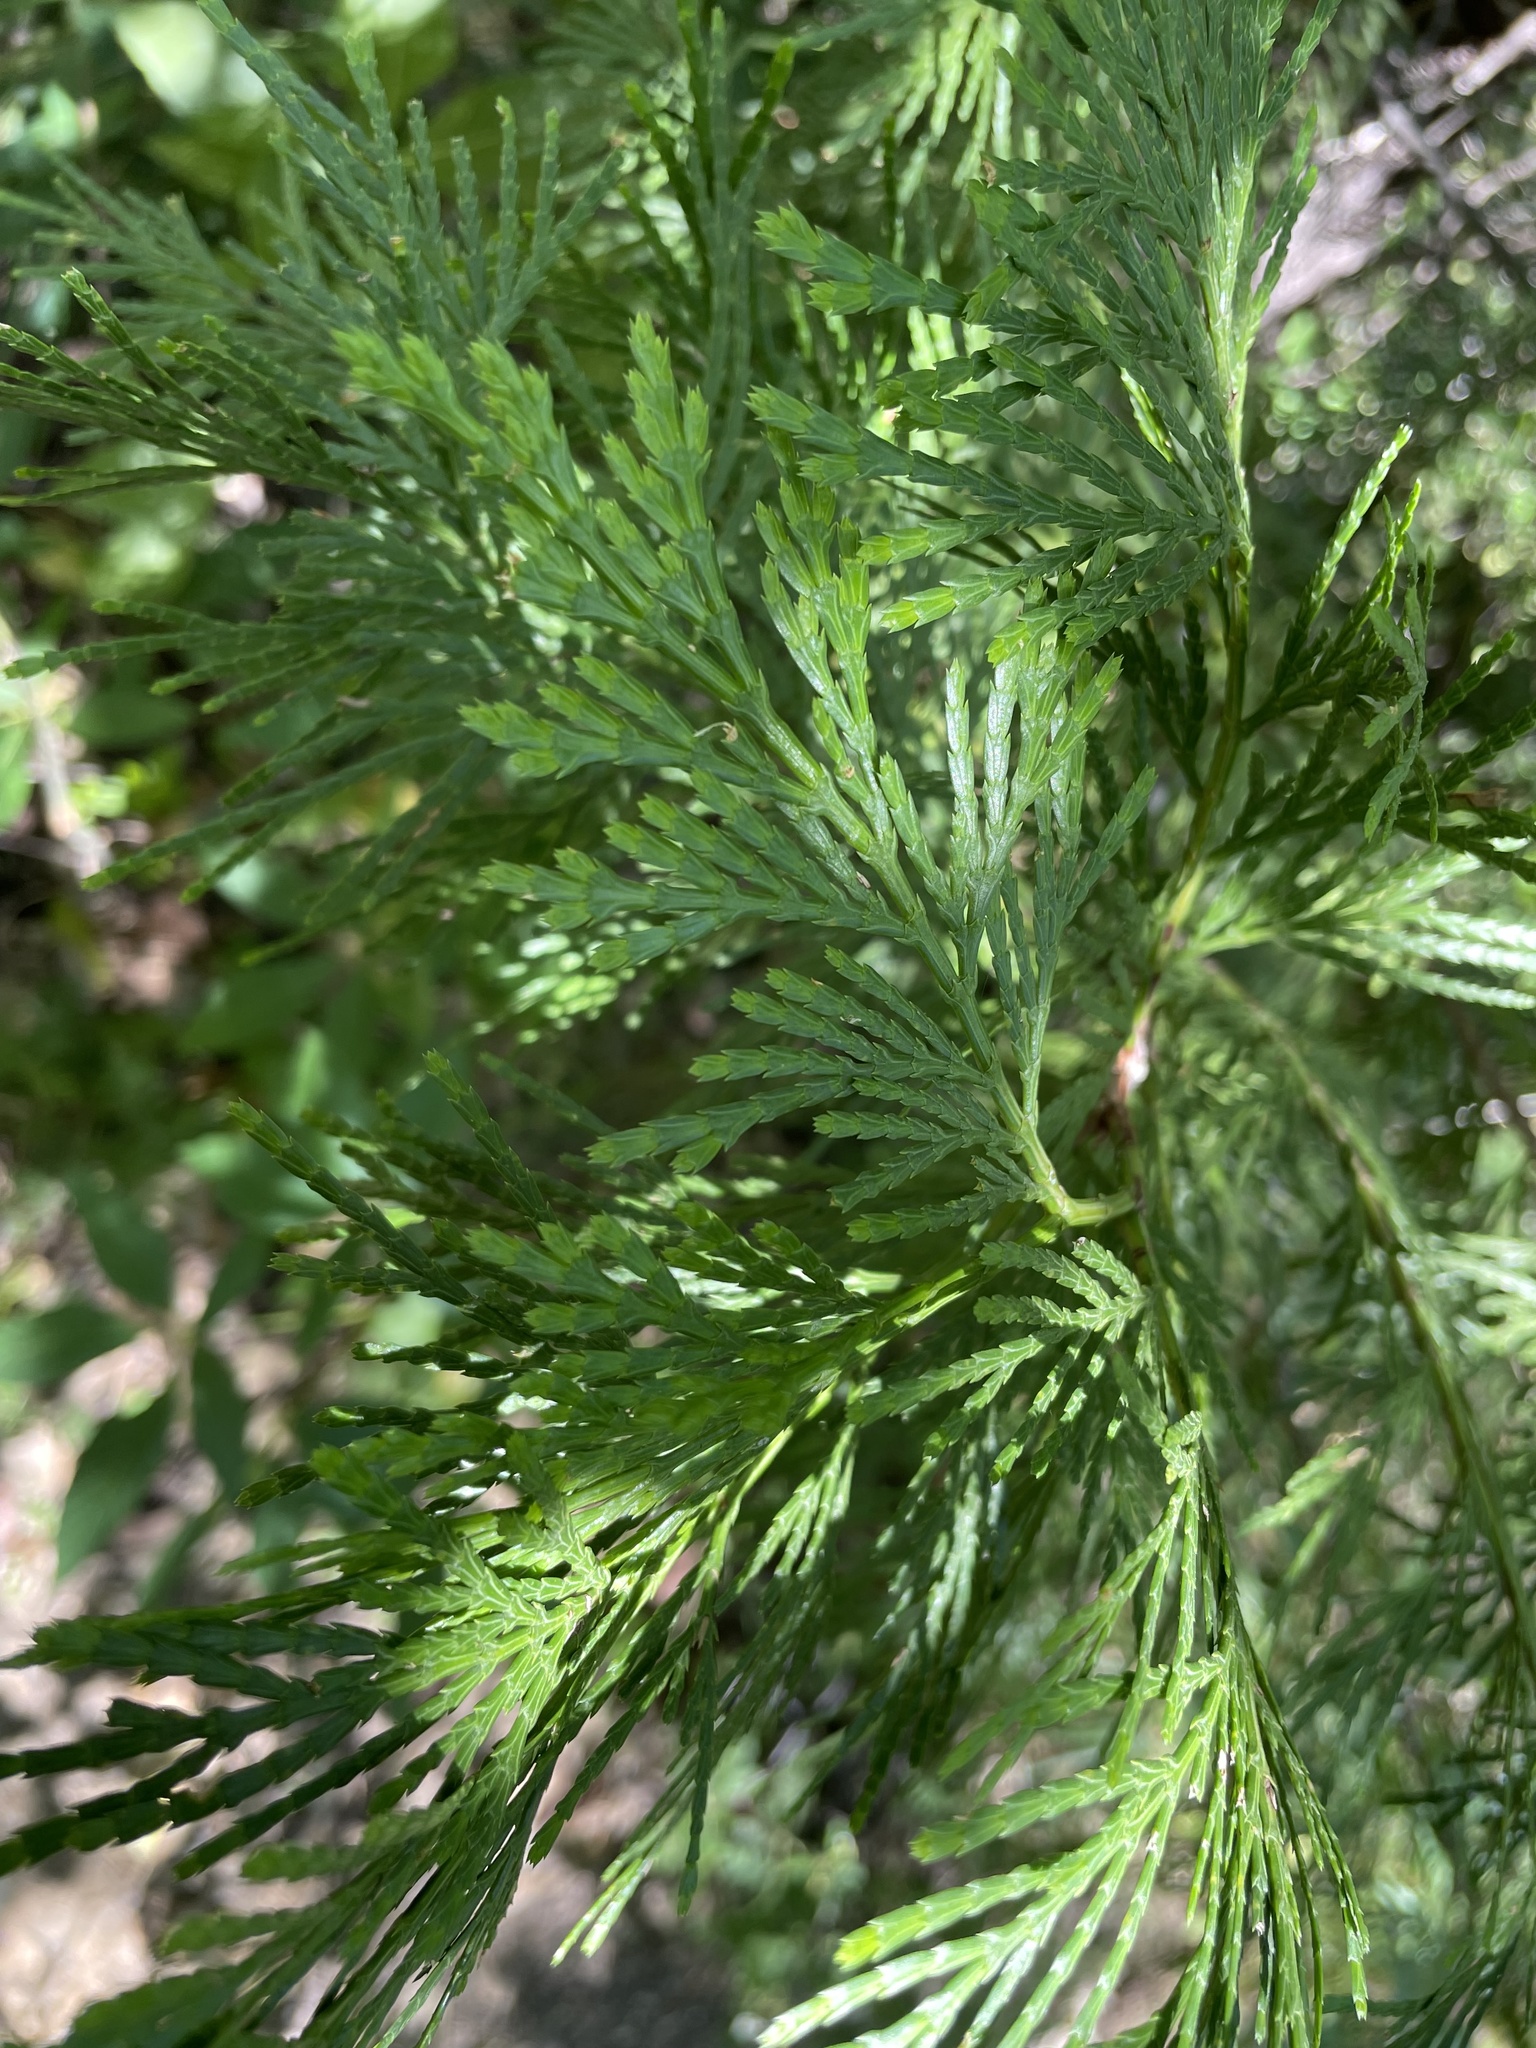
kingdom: Plantae
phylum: Tracheophyta
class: Pinopsida
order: Pinales
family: Cupressaceae
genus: Calocedrus
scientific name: Calocedrus decurrens
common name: Californian incense-cedar
